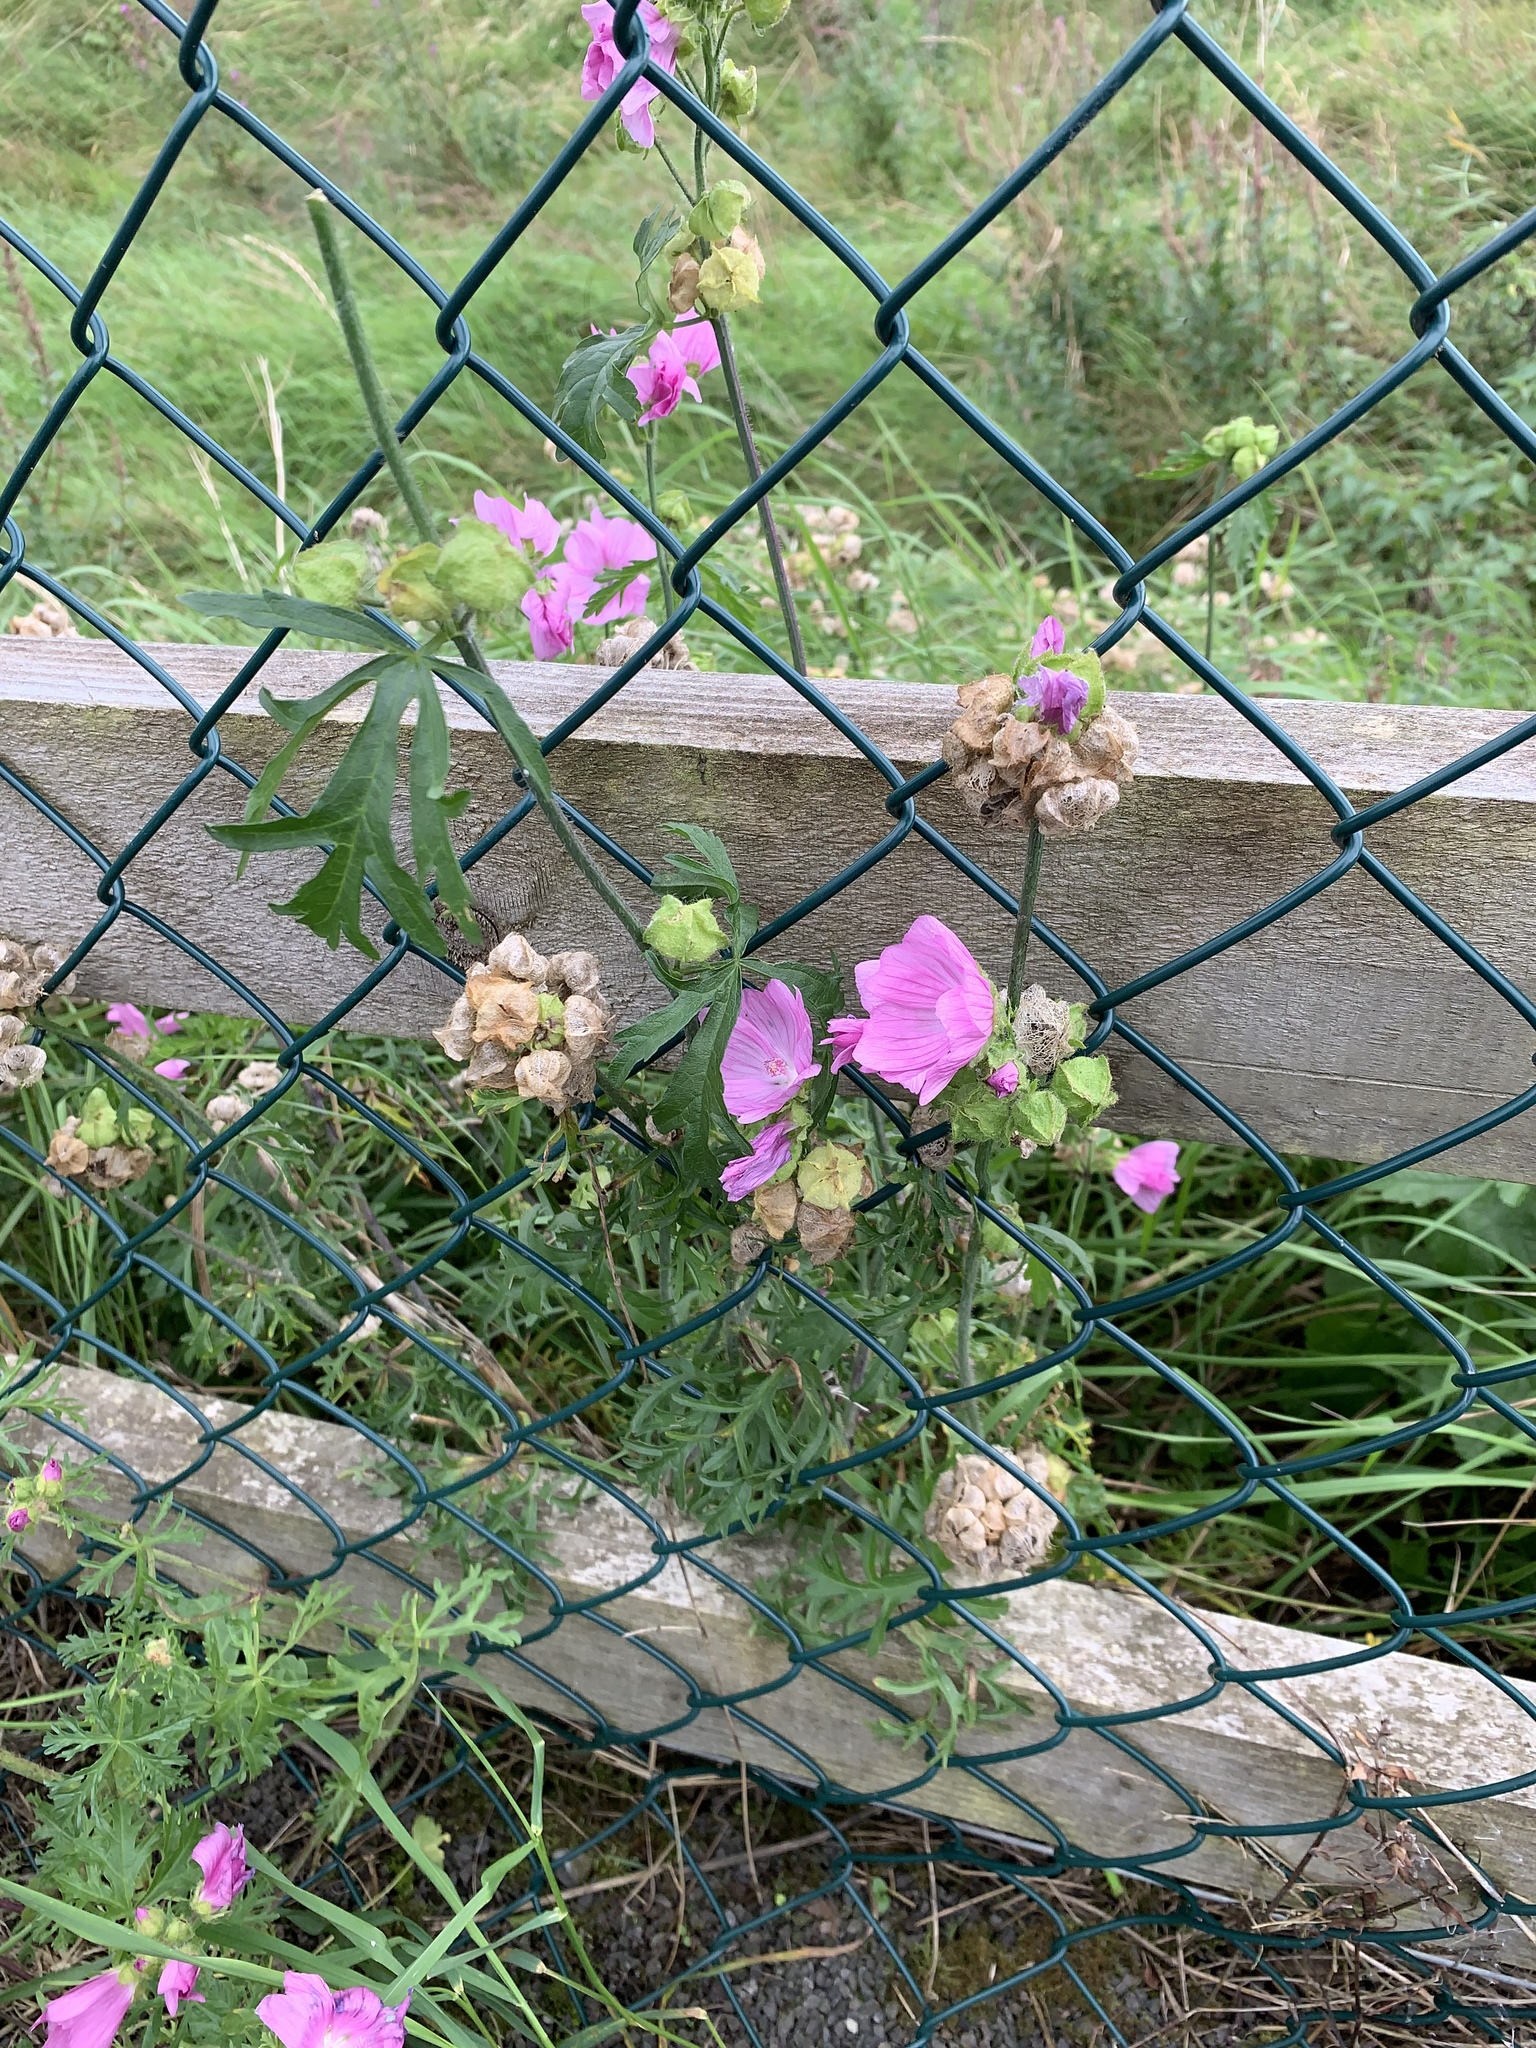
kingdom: Plantae
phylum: Tracheophyta
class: Magnoliopsida
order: Malvales
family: Malvaceae
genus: Malva
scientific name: Malva moschata
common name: Musk mallow
